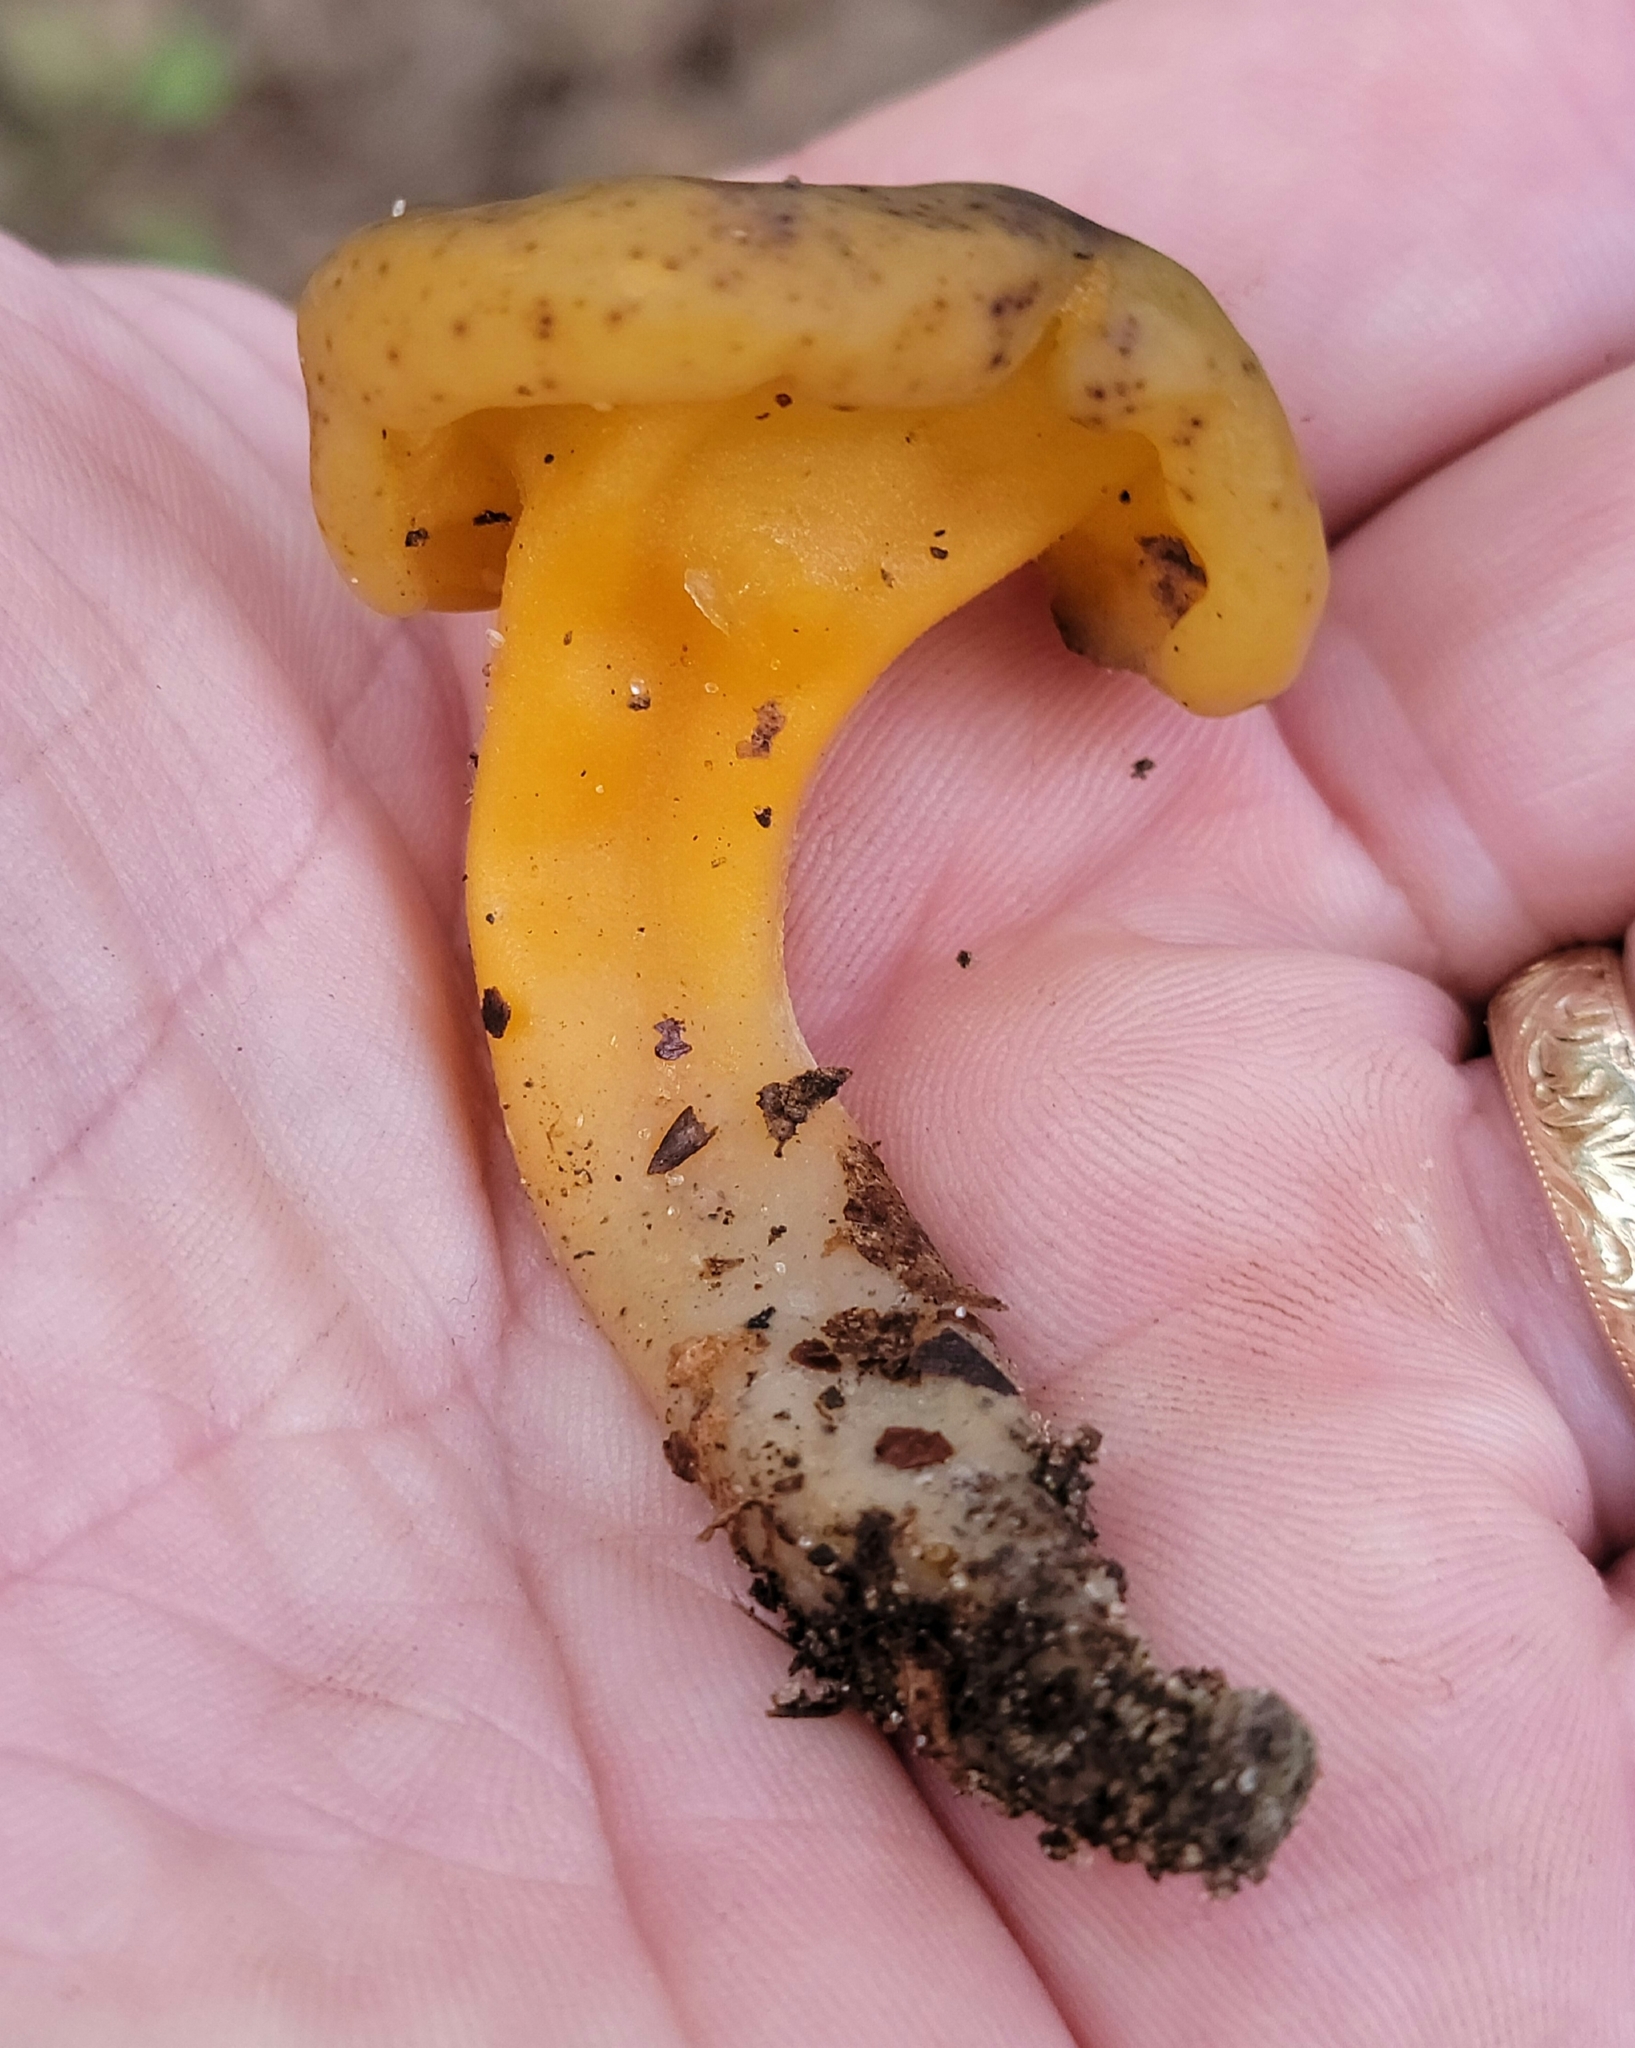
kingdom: Fungi
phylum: Ascomycota
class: Leotiomycetes
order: Leotiales
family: Leotiaceae
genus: Leotia
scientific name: Leotia lubrica
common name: Jellybaby
